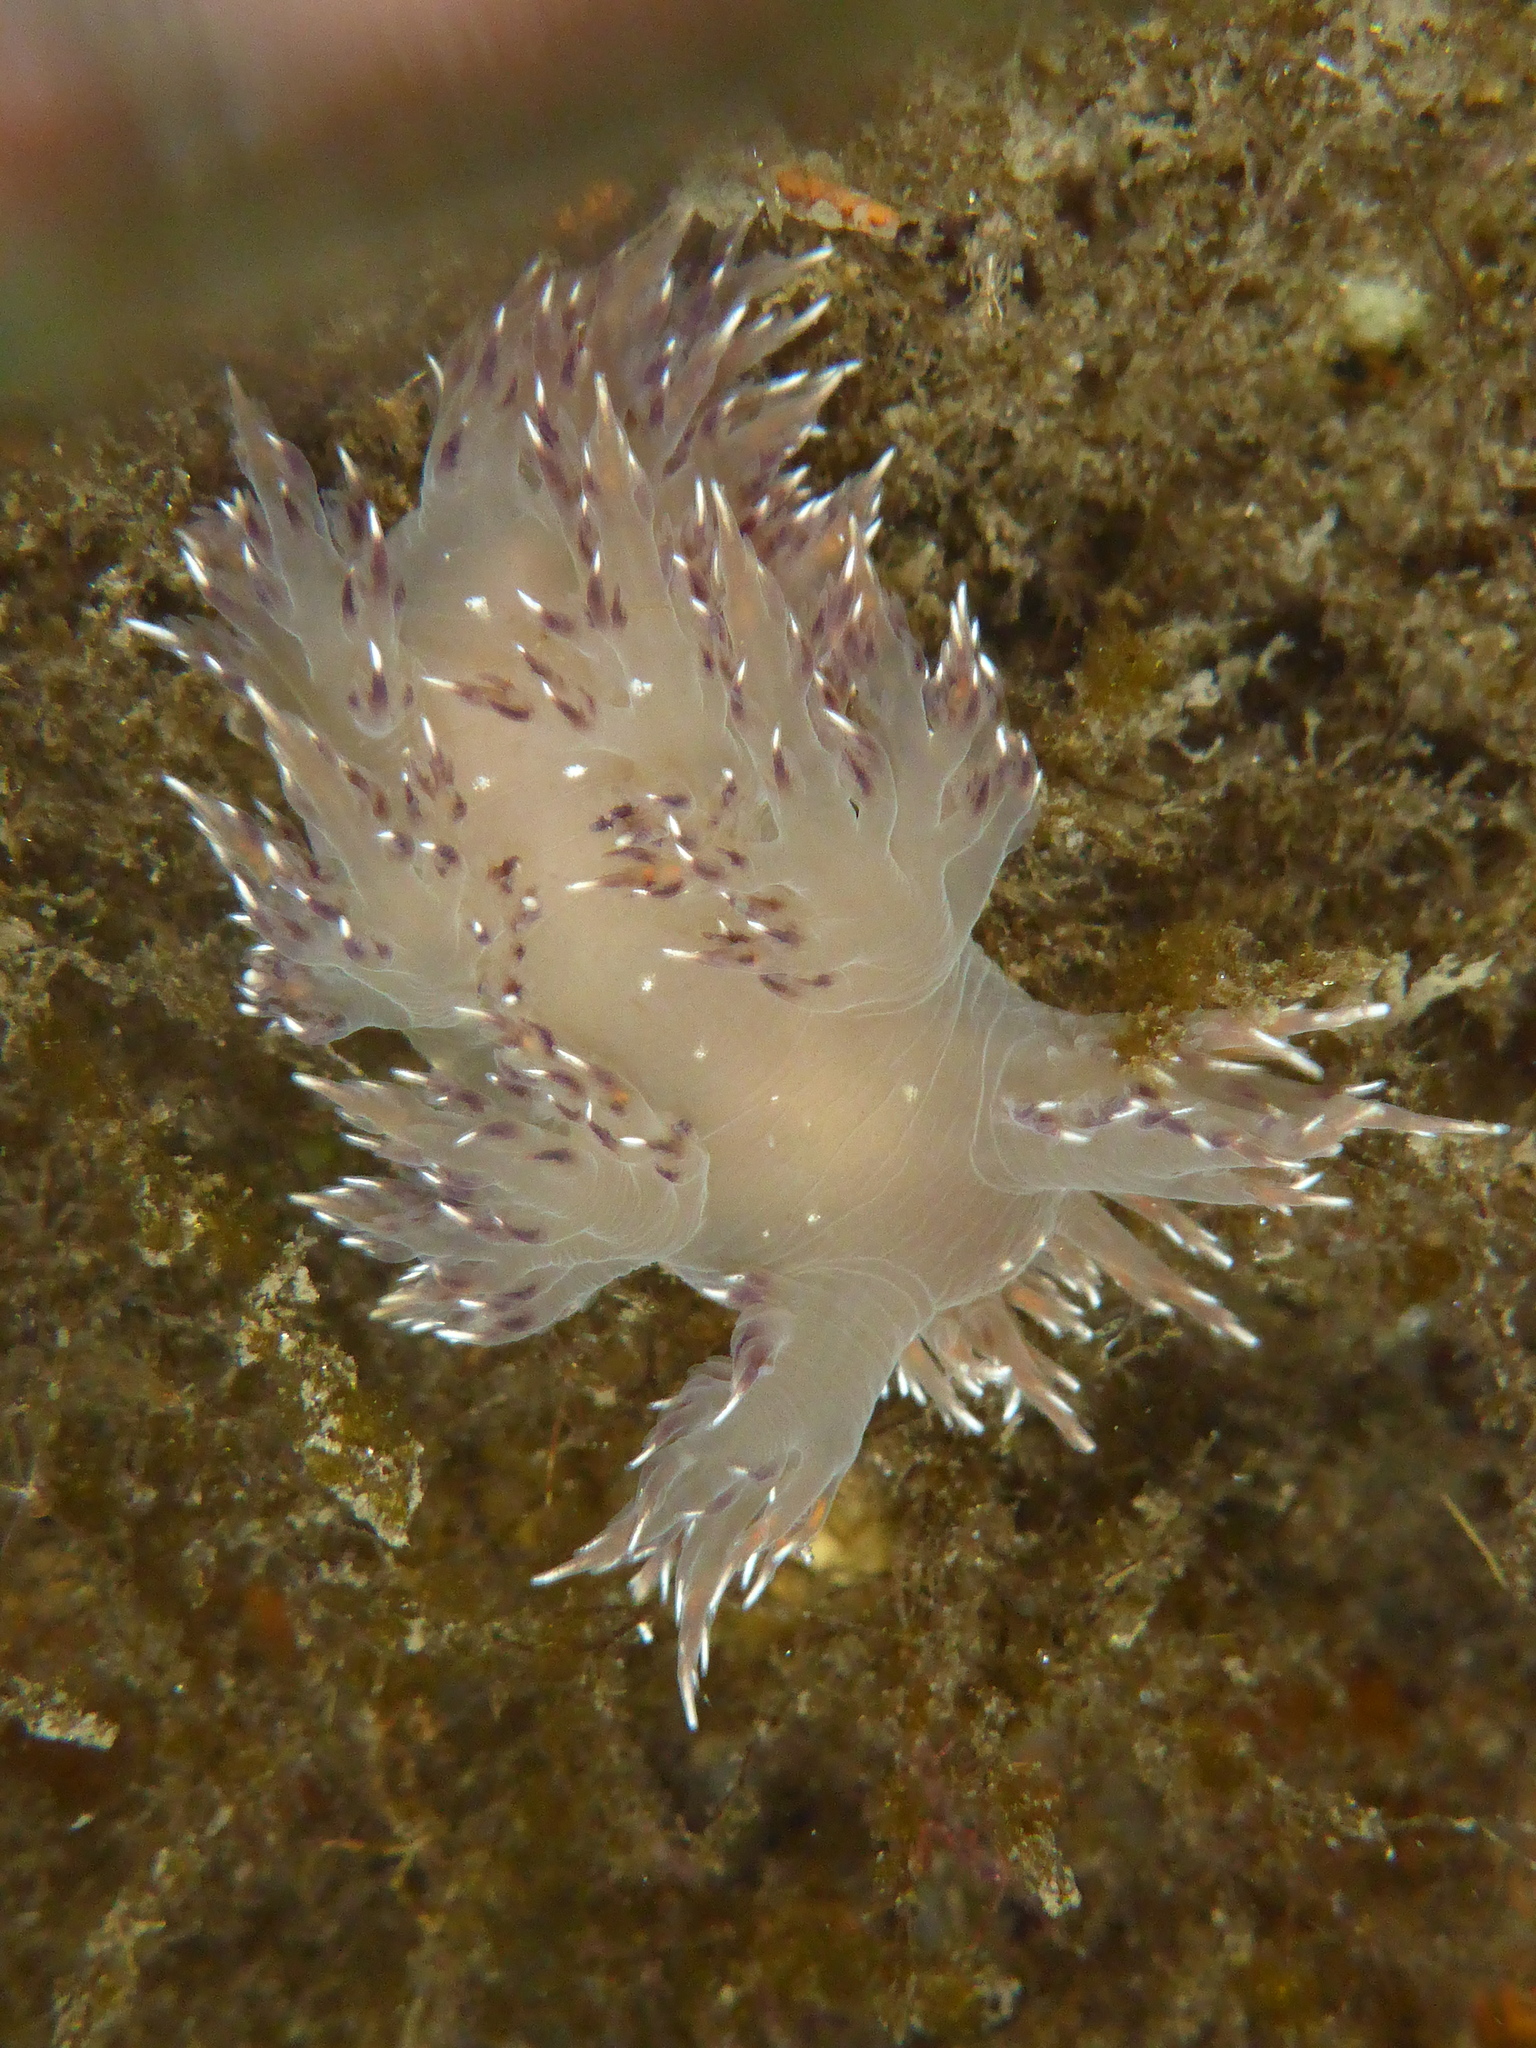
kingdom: Animalia
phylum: Mollusca
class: Gastropoda
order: Nudibranchia
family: Dendronotidae
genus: Dendronotus
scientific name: Dendronotus iris
